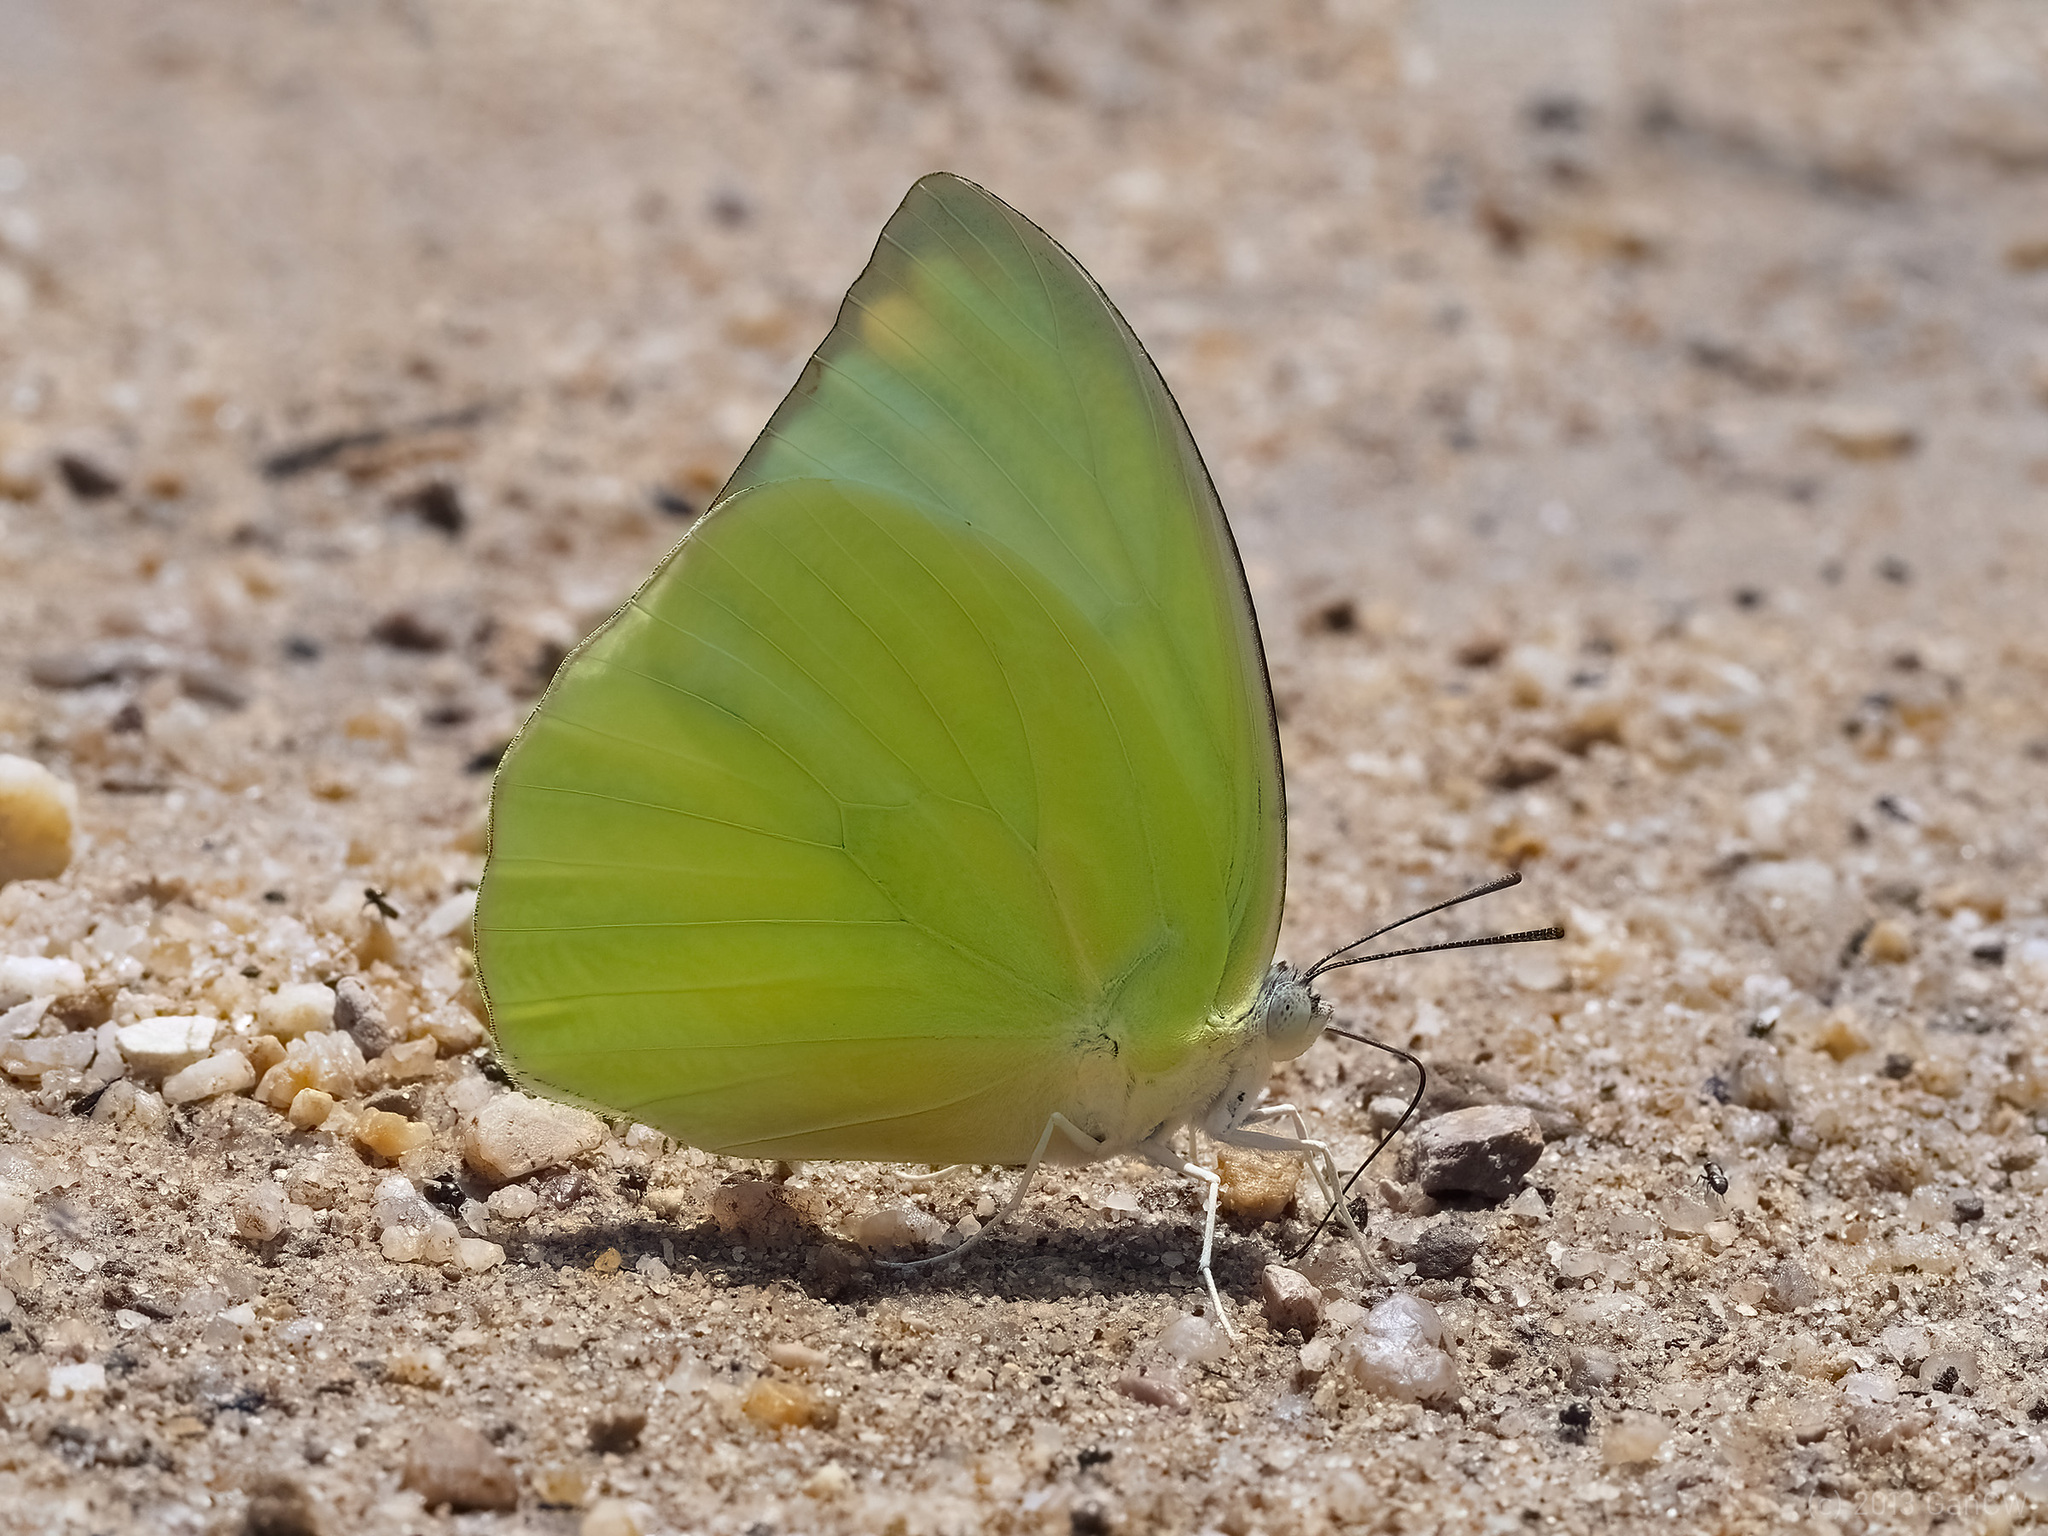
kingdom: Animalia
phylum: Arthropoda
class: Insecta
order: Lepidoptera
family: Pieridae
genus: Catopsilia
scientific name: Catopsilia pomona
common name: Common emigrant
